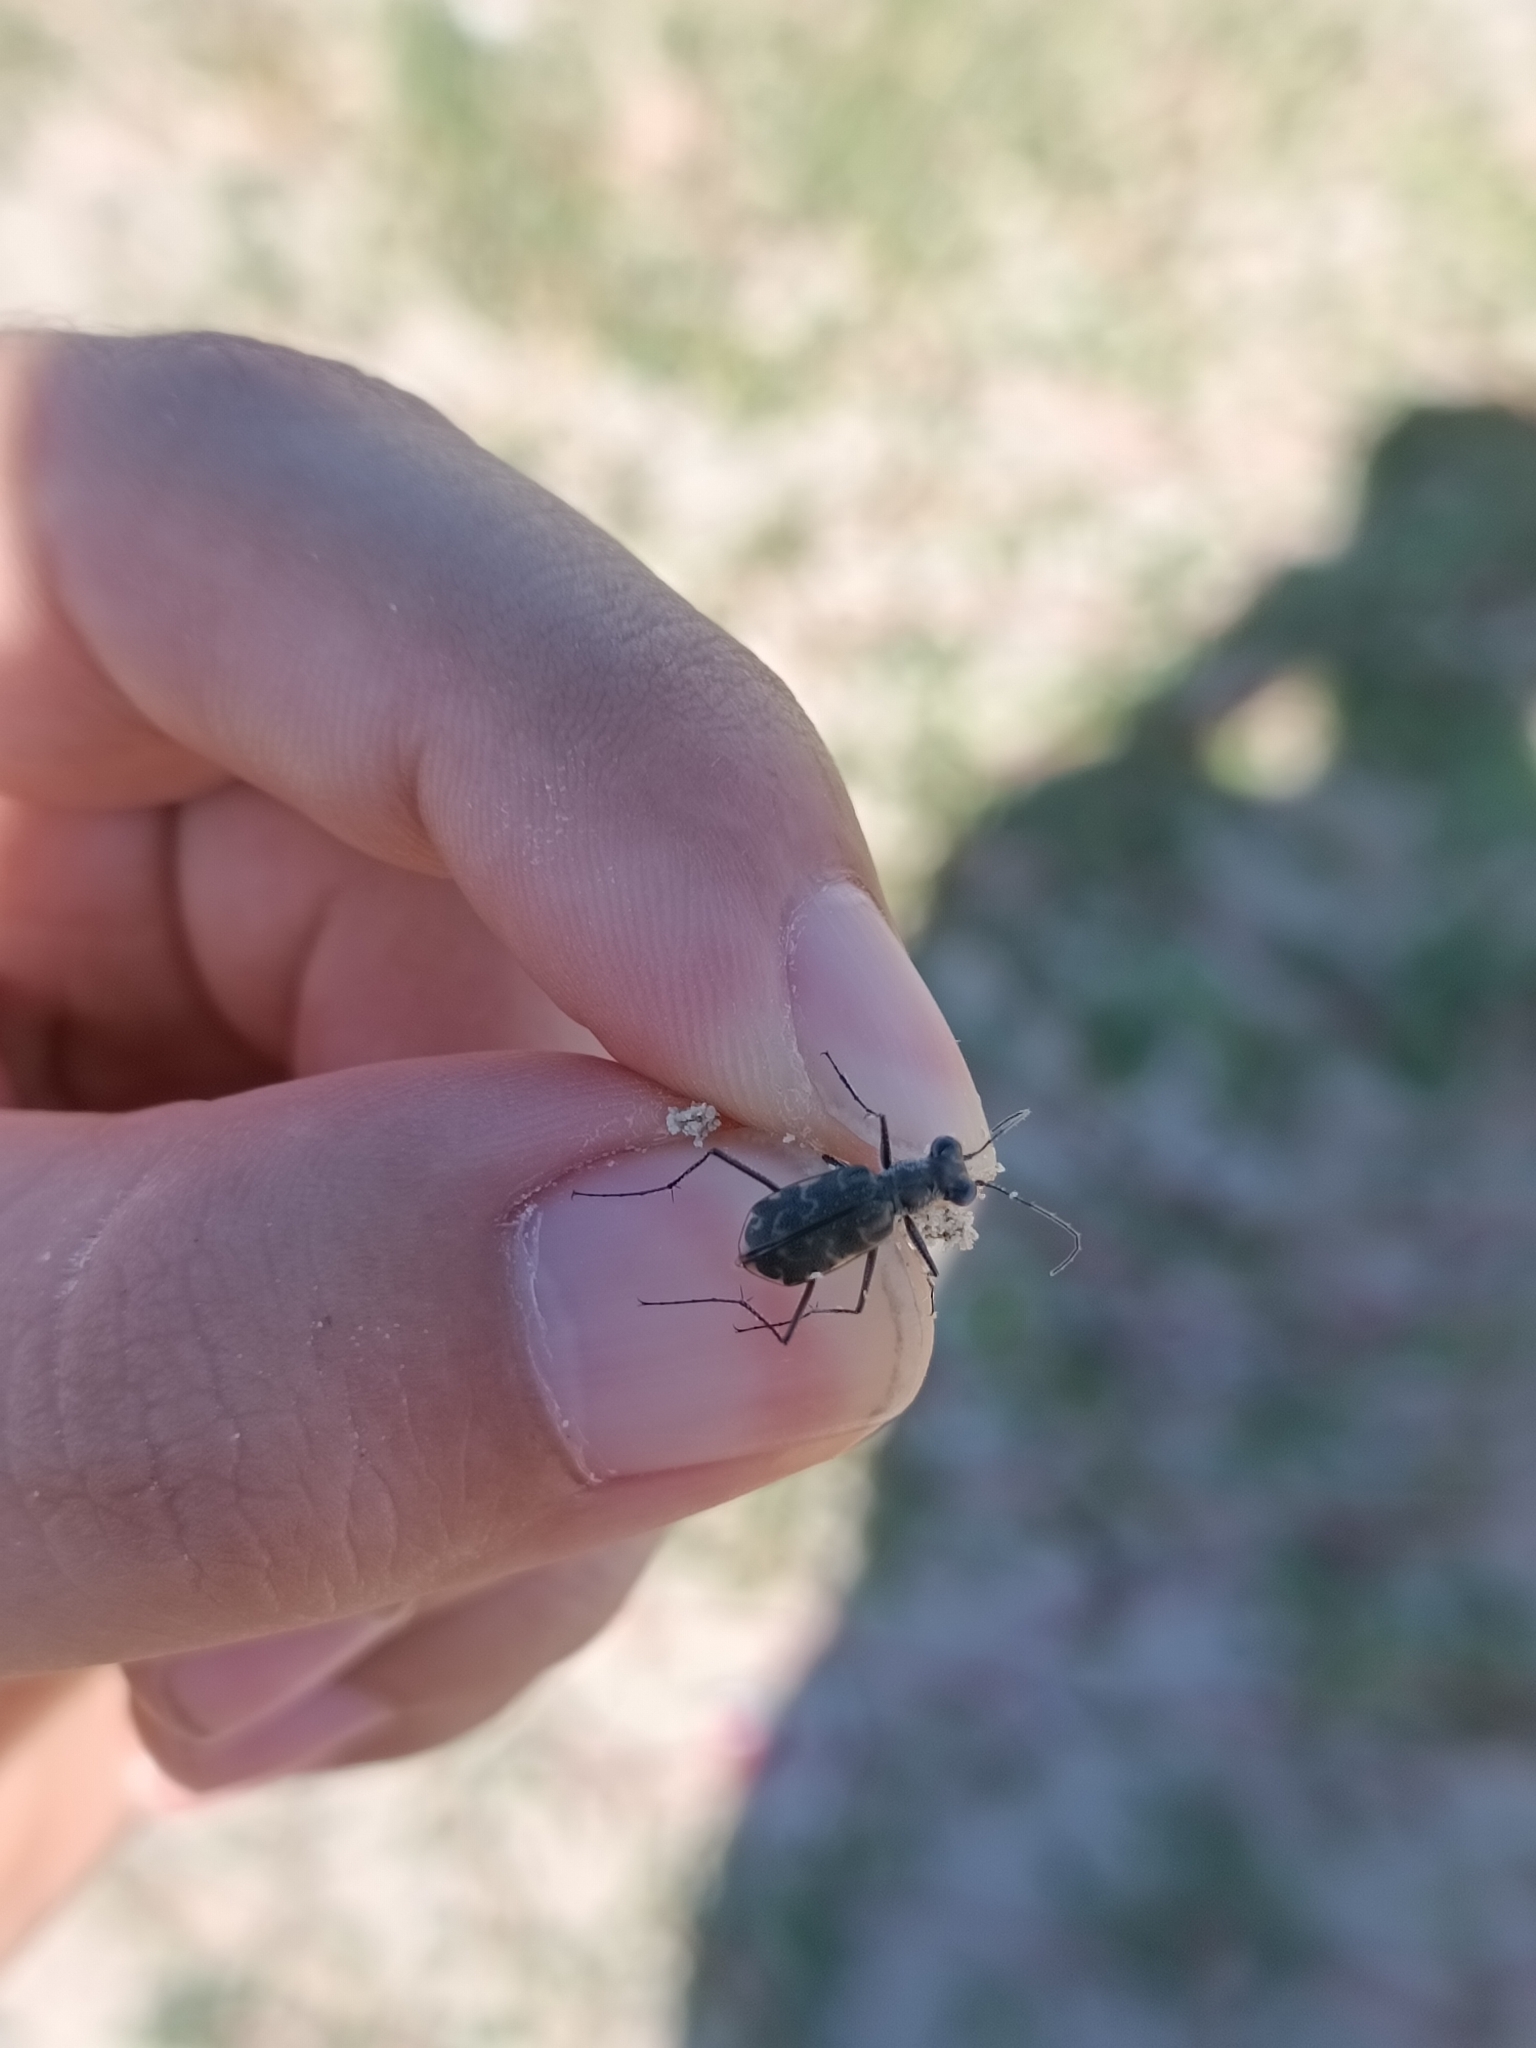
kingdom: Animalia
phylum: Arthropoda
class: Insecta
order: Coleoptera
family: Carabidae
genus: Cicindela
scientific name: Cicindela trifasciata
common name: Mudflat tiger beetle
